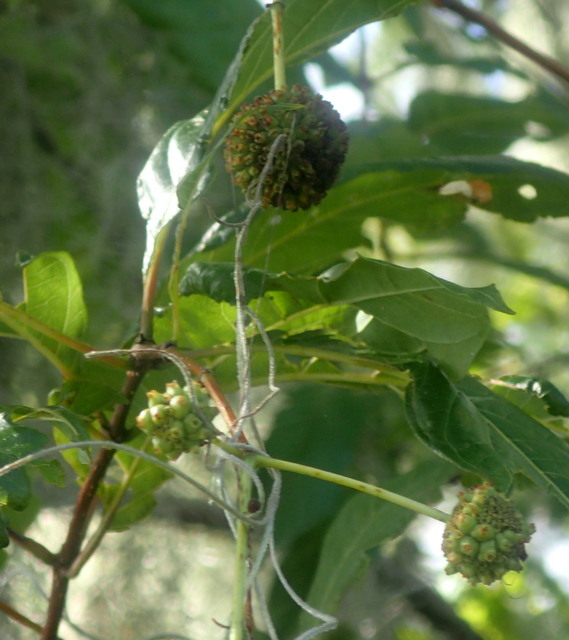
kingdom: Plantae
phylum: Tracheophyta
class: Magnoliopsida
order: Gentianales
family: Rubiaceae
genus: Cephalanthus
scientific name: Cephalanthus occidentalis
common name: Button-willow
